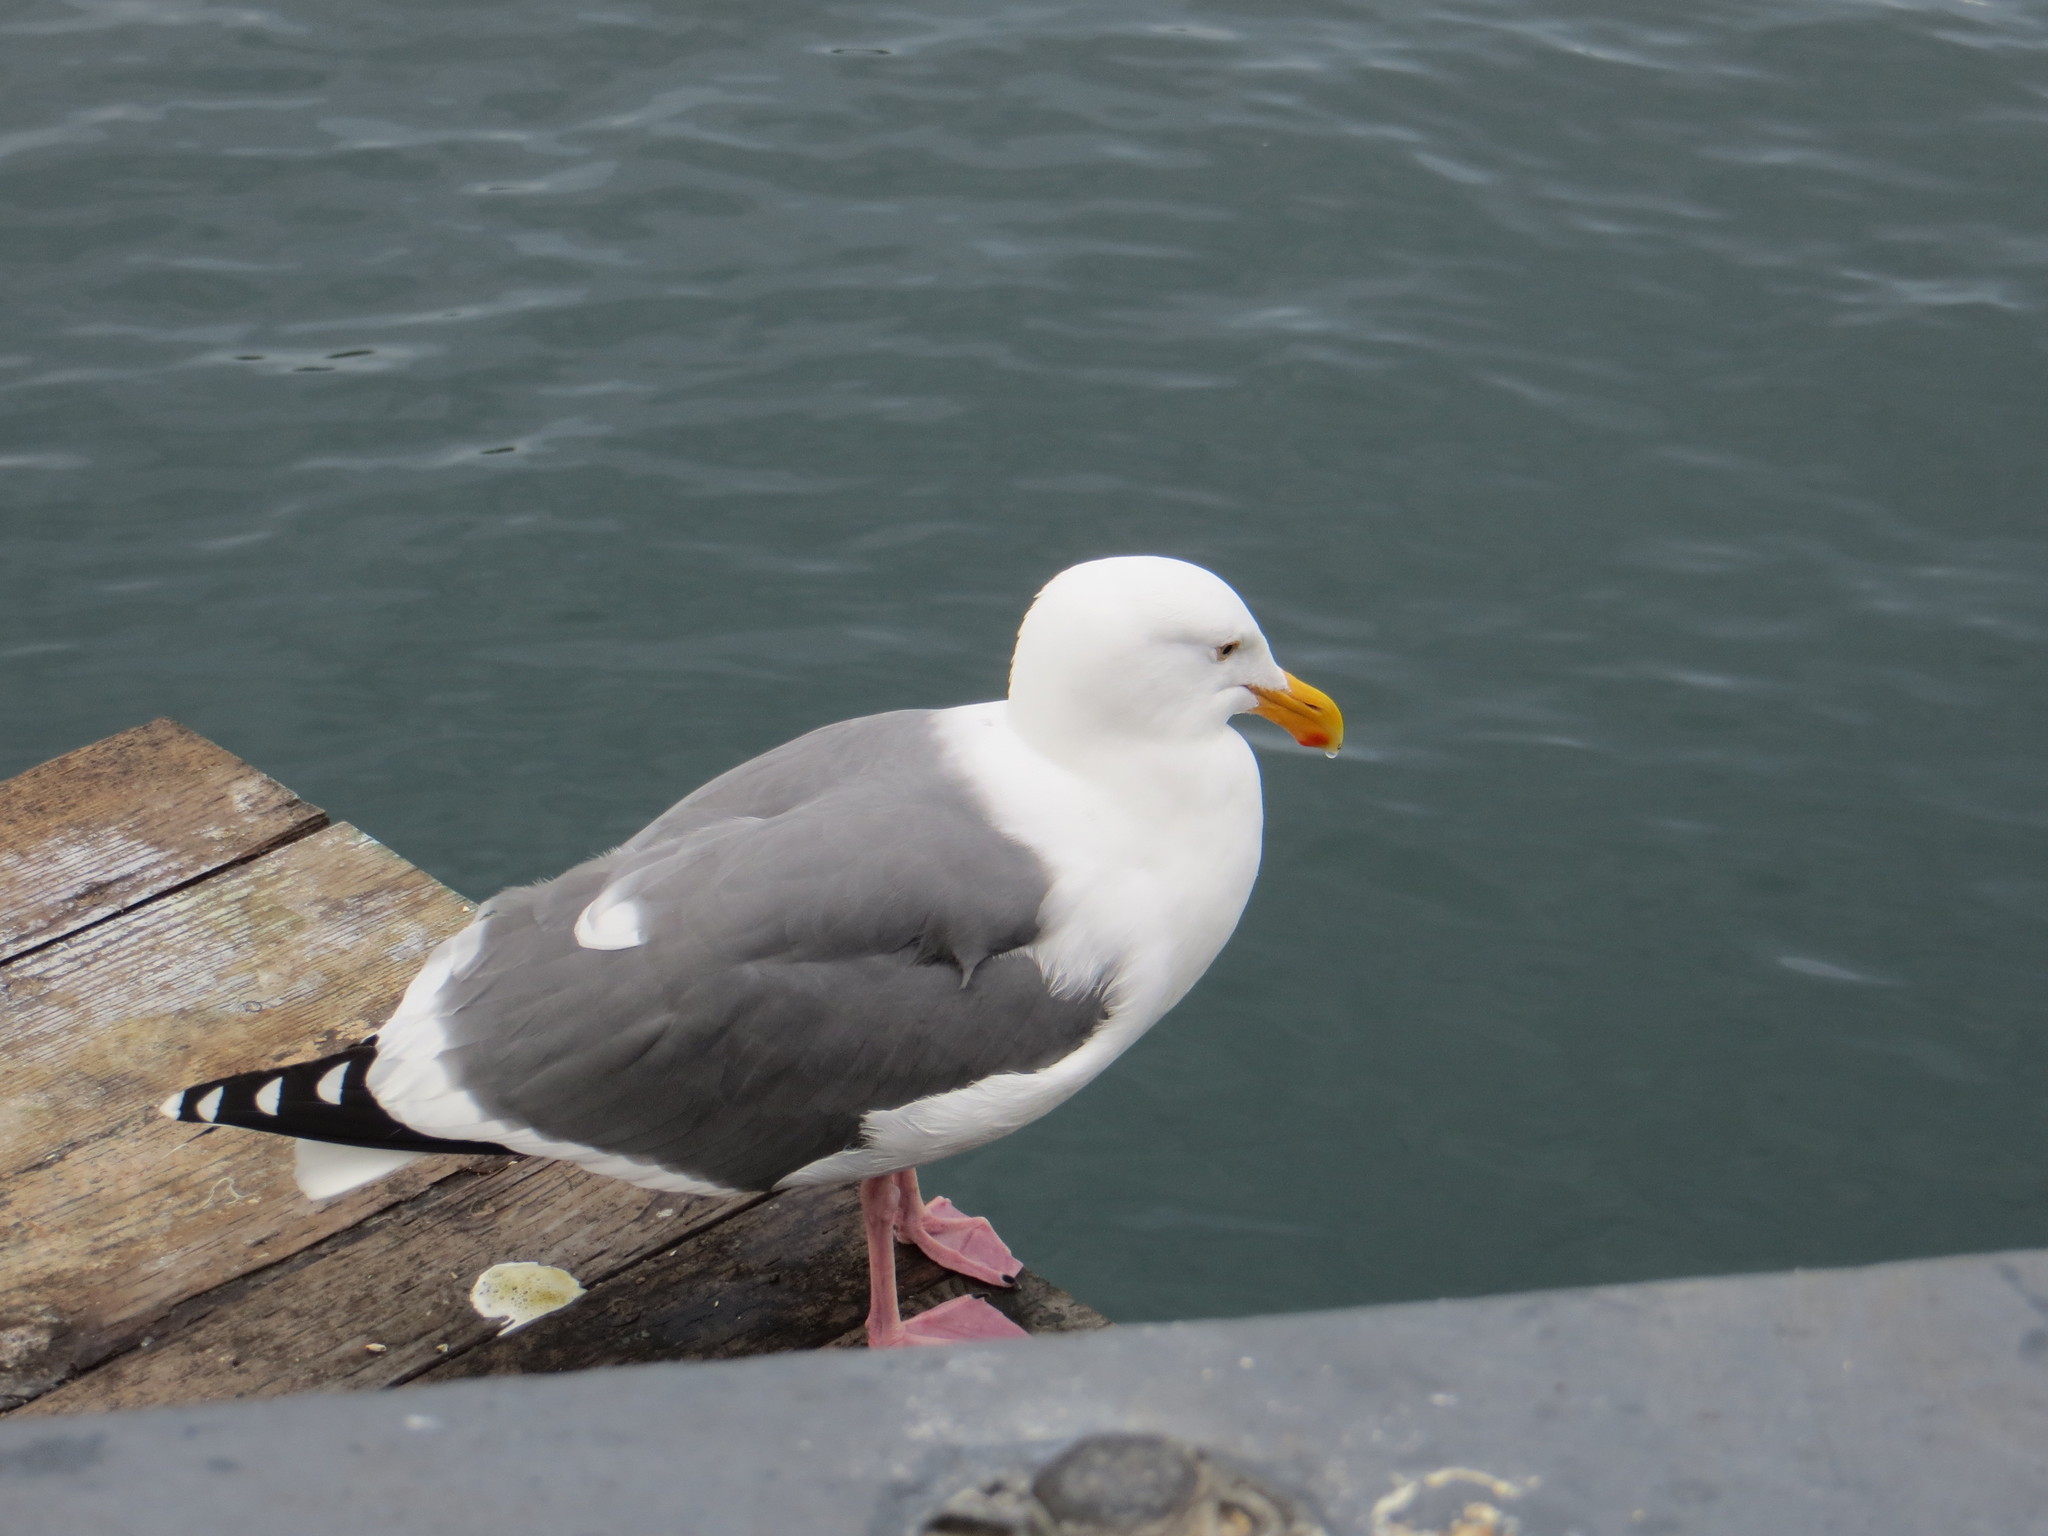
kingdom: Animalia
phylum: Chordata
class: Aves
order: Charadriiformes
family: Laridae
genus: Larus
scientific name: Larus occidentalis
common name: Western gull
